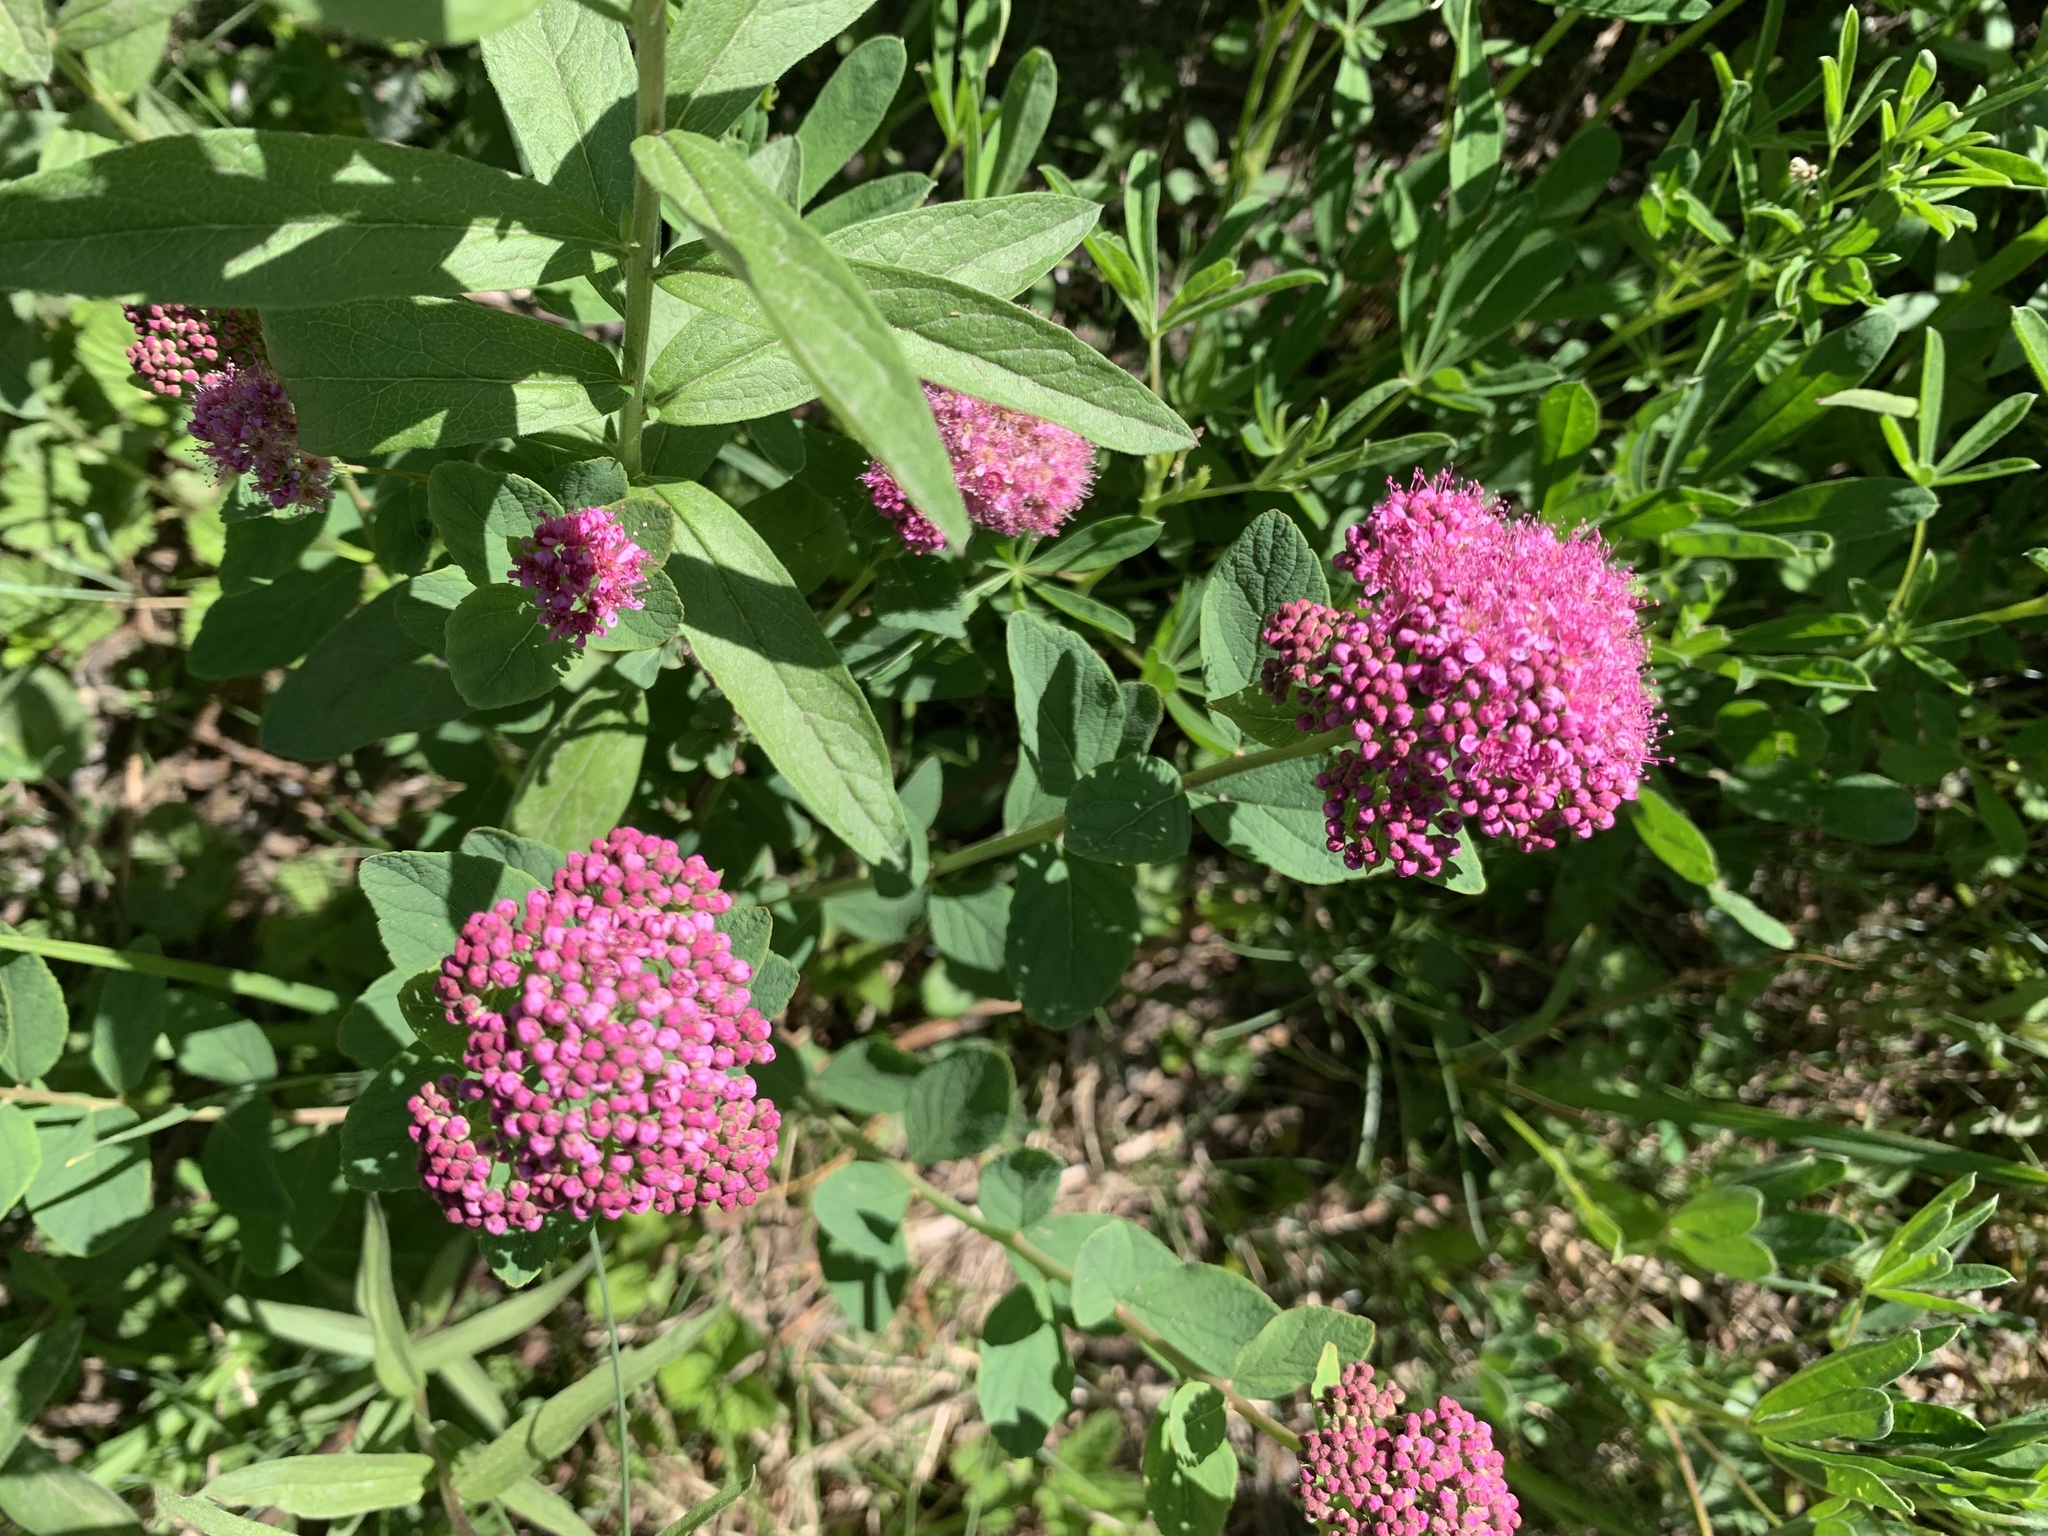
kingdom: Plantae
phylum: Tracheophyta
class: Magnoliopsida
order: Rosales
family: Rosaceae
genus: Spiraea
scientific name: Spiraea splendens
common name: Subalpine meadowsweet
